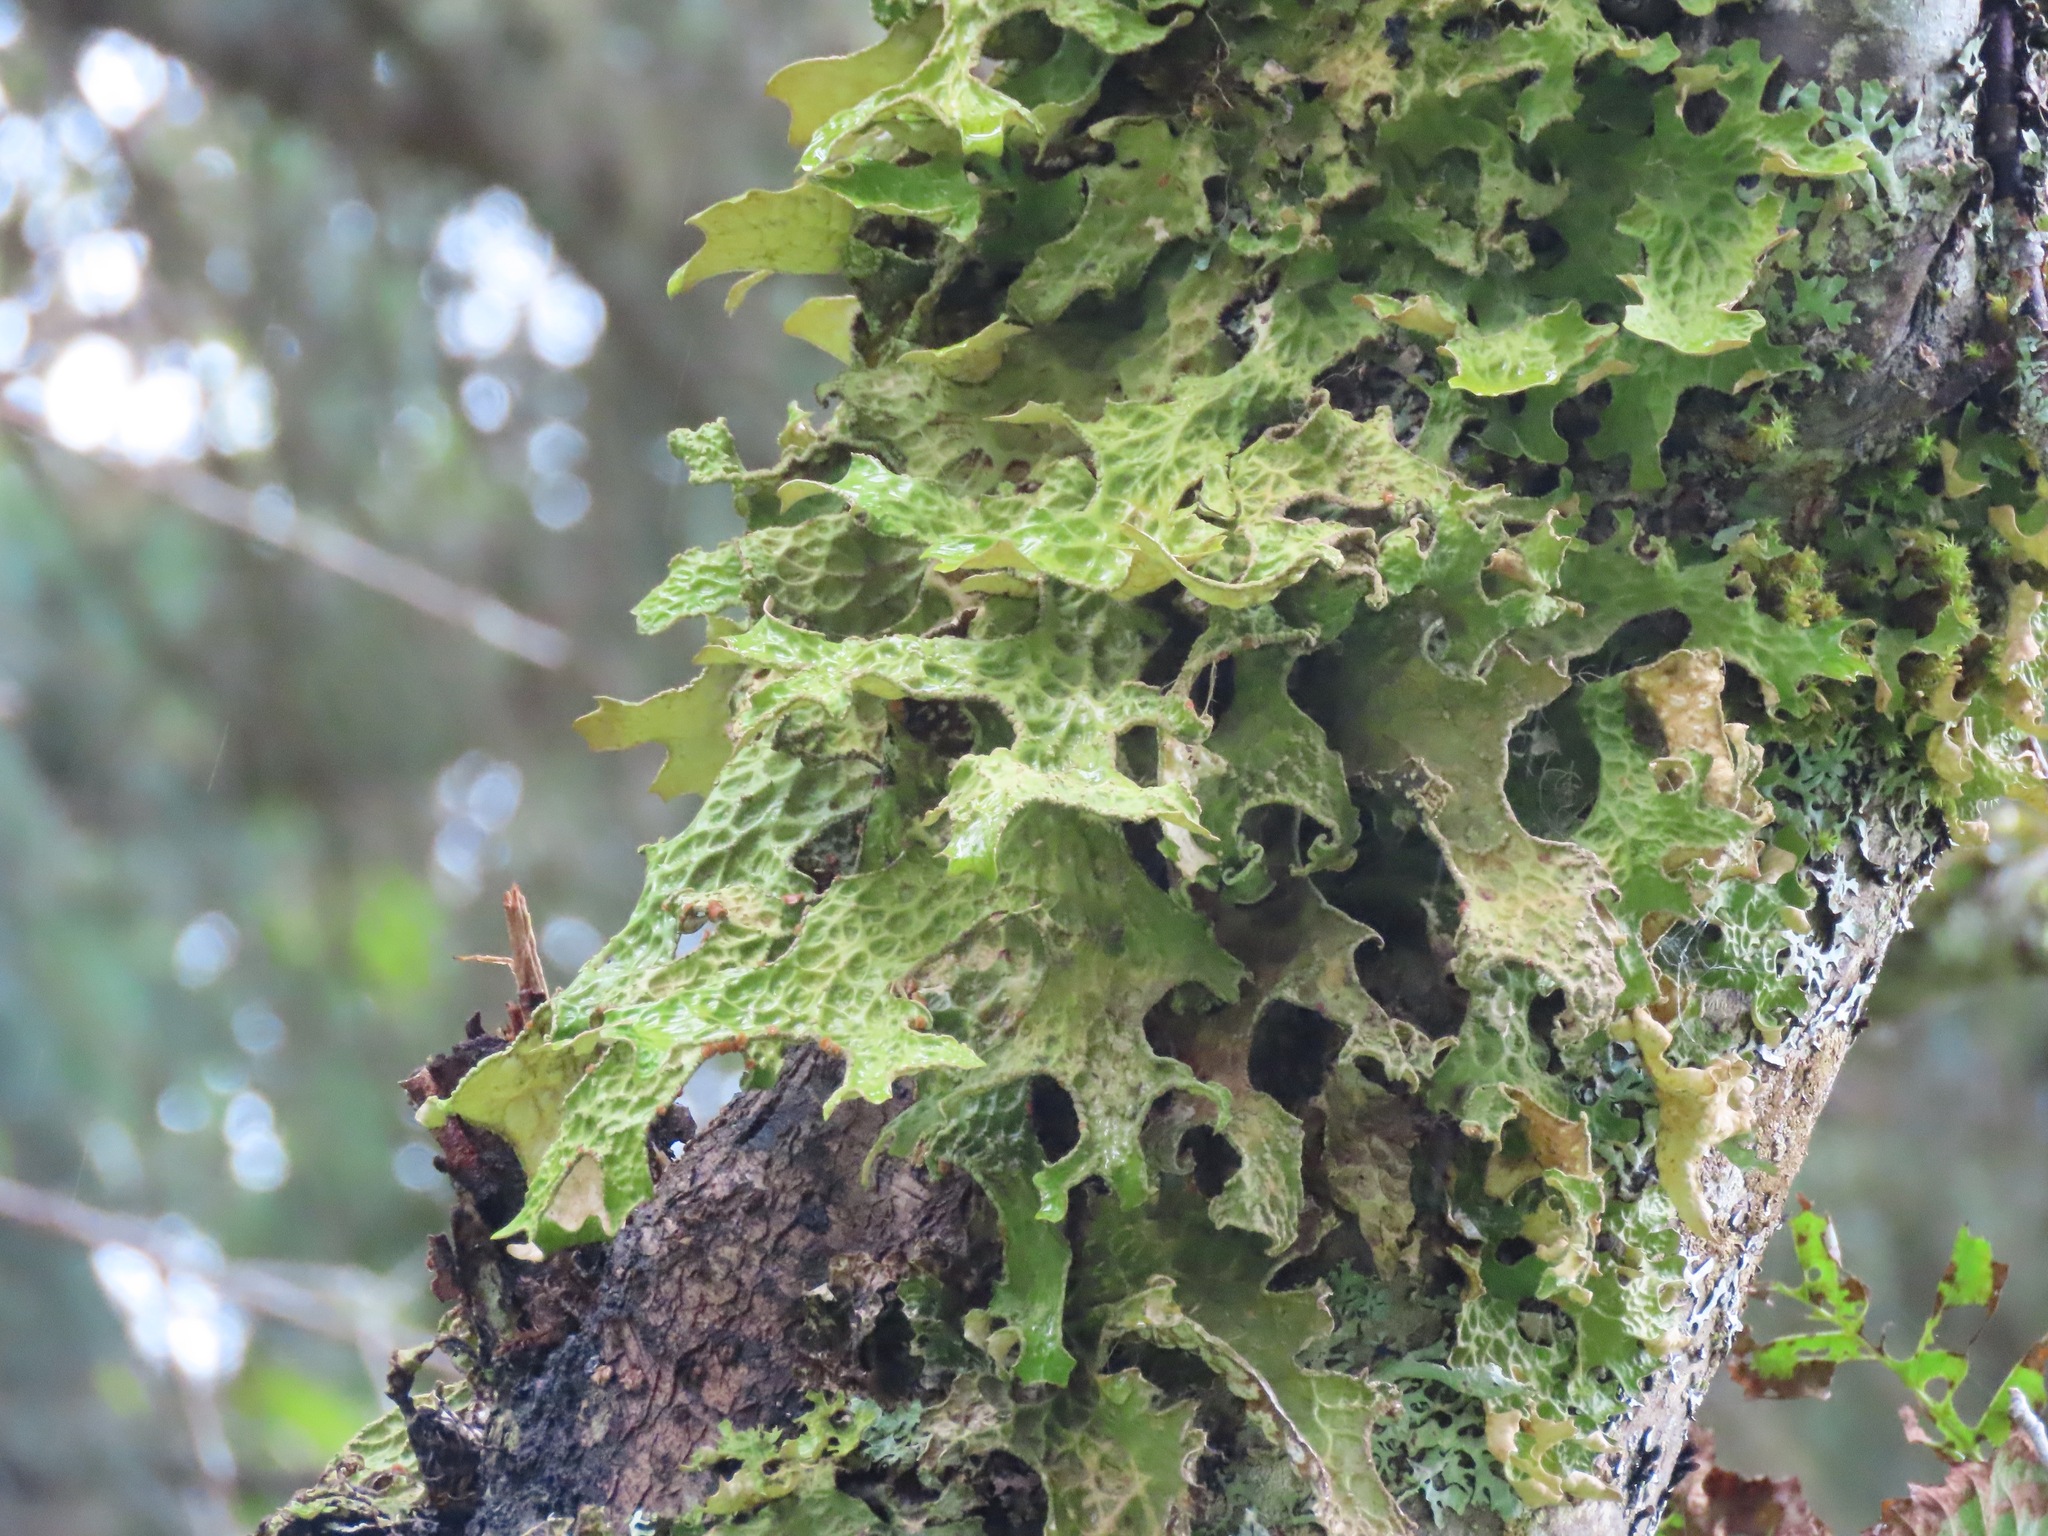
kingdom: Fungi
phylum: Ascomycota
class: Lecanoromycetes
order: Peltigerales
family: Lobariaceae
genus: Lobaria
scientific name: Lobaria pulmonaria
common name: Lungwort
